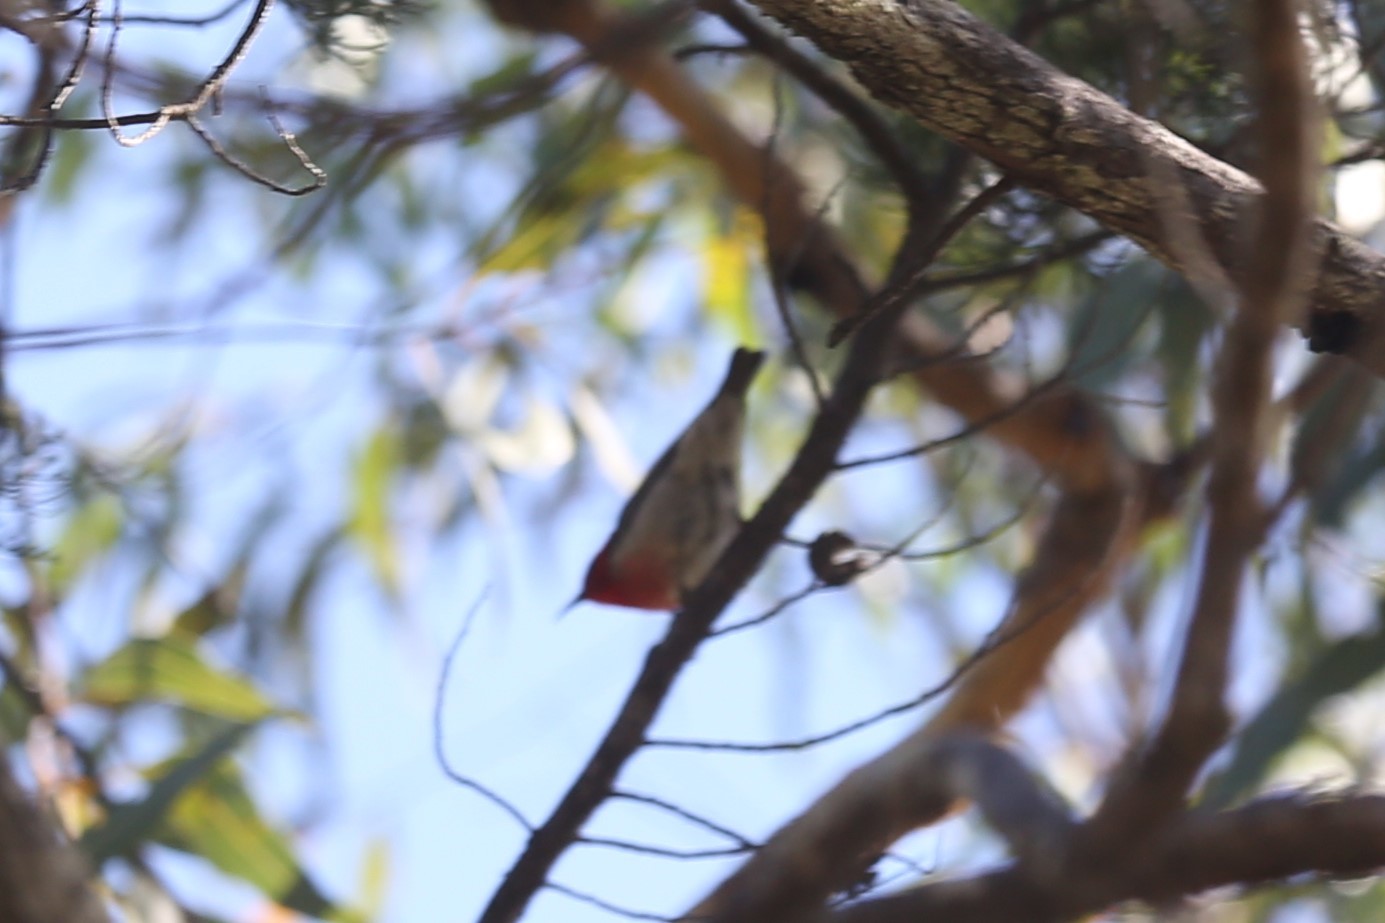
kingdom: Animalia
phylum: Chordata
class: Aves
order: Passeriformes
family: Meliphagidae
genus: Myzomela
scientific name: Myzomela sanguinolenta
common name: Scarlet myzomela
